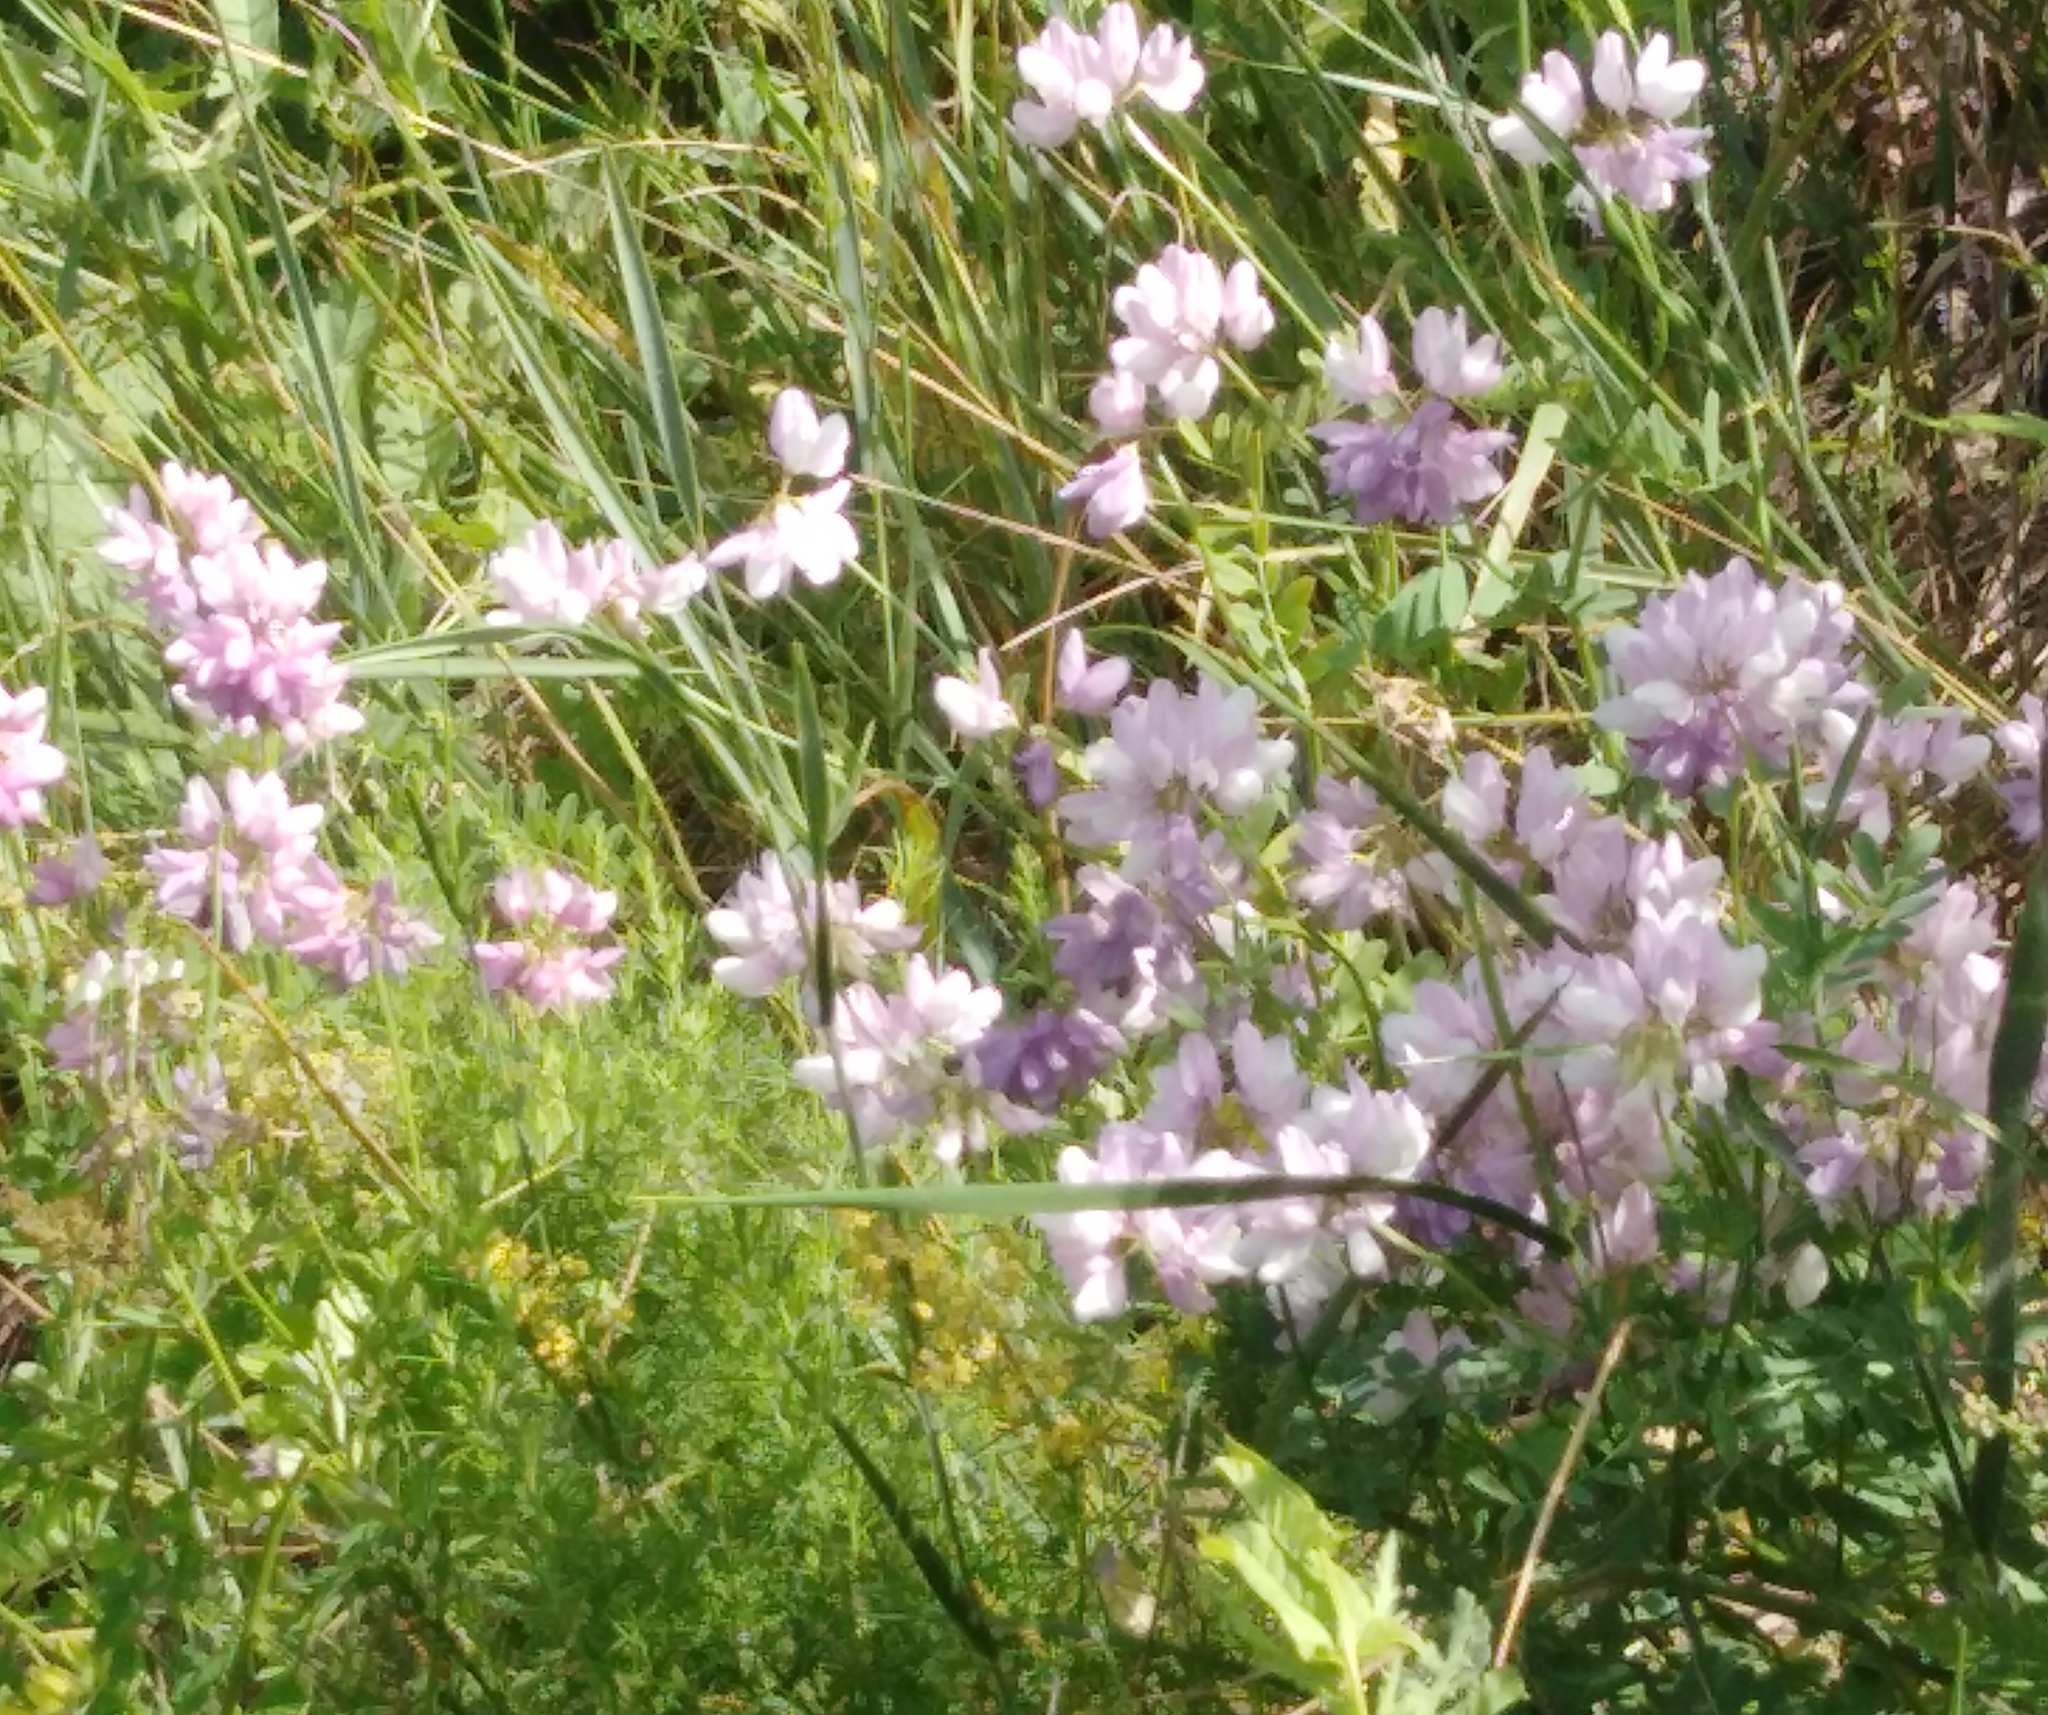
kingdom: Plantae
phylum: Tracheophyta
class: Magnoliopsida
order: Fabales
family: Fabaceae
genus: Coronilla
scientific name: Coronilla varia
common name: Crownvetch
